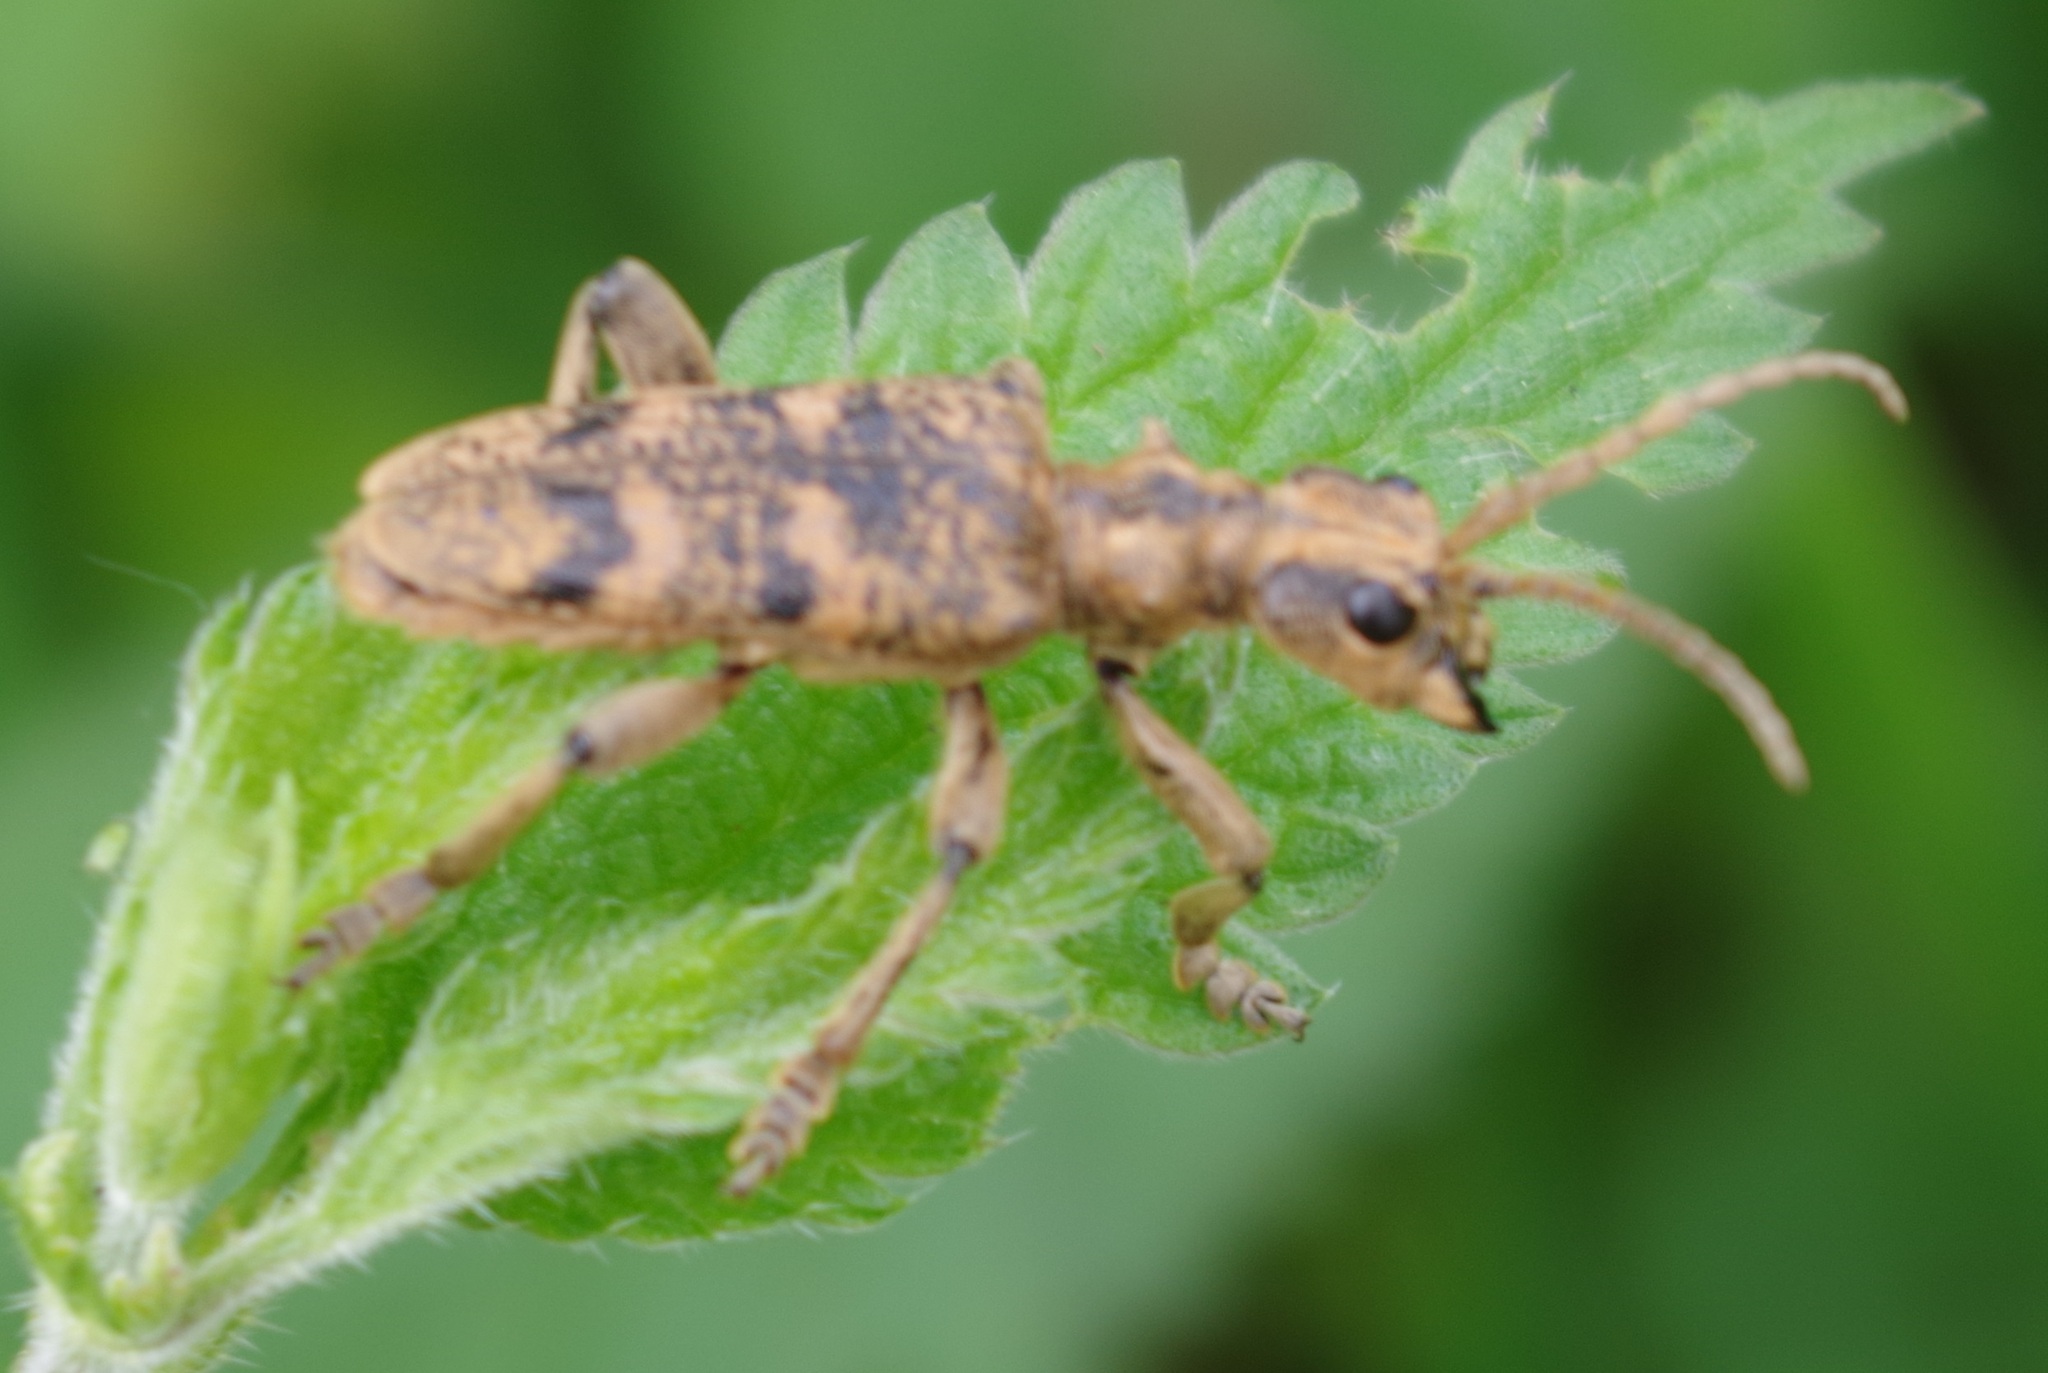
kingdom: Animalia
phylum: Arthropoda
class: Insecta
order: Coleoptera
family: Cerambycidae
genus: Rhagium
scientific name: Rhagium sycophanta
